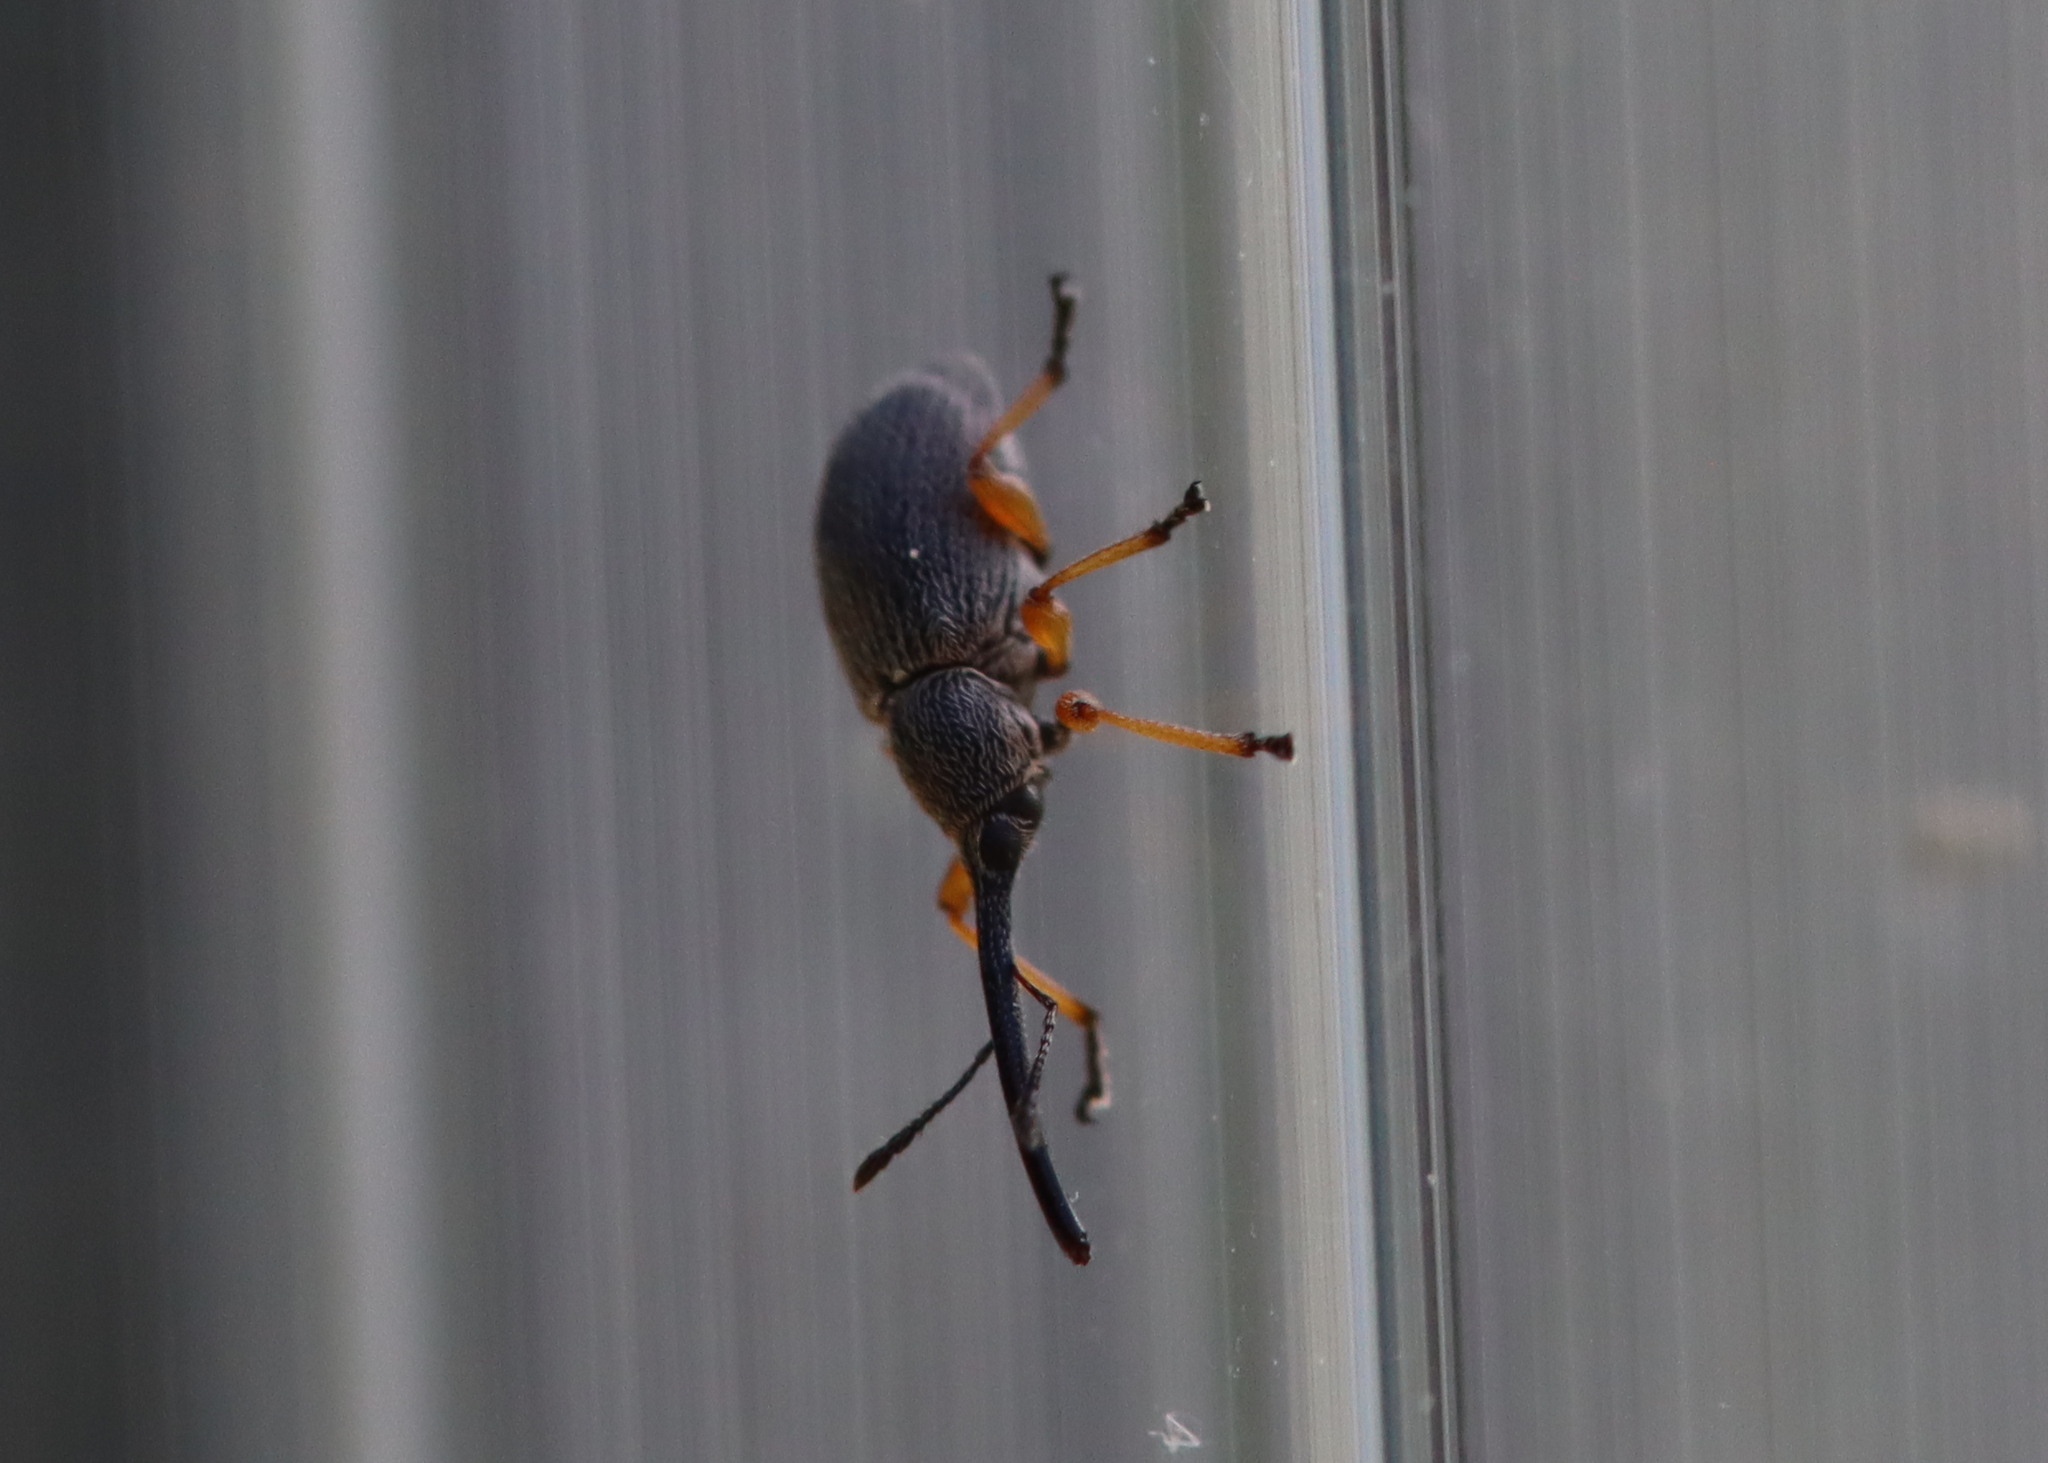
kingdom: Animalia
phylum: Arthropoda
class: Insecta
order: Coleoptera
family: Brentidae
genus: Rhopalapion
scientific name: Rhopalapion longirostre
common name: Hollyhock weevil
